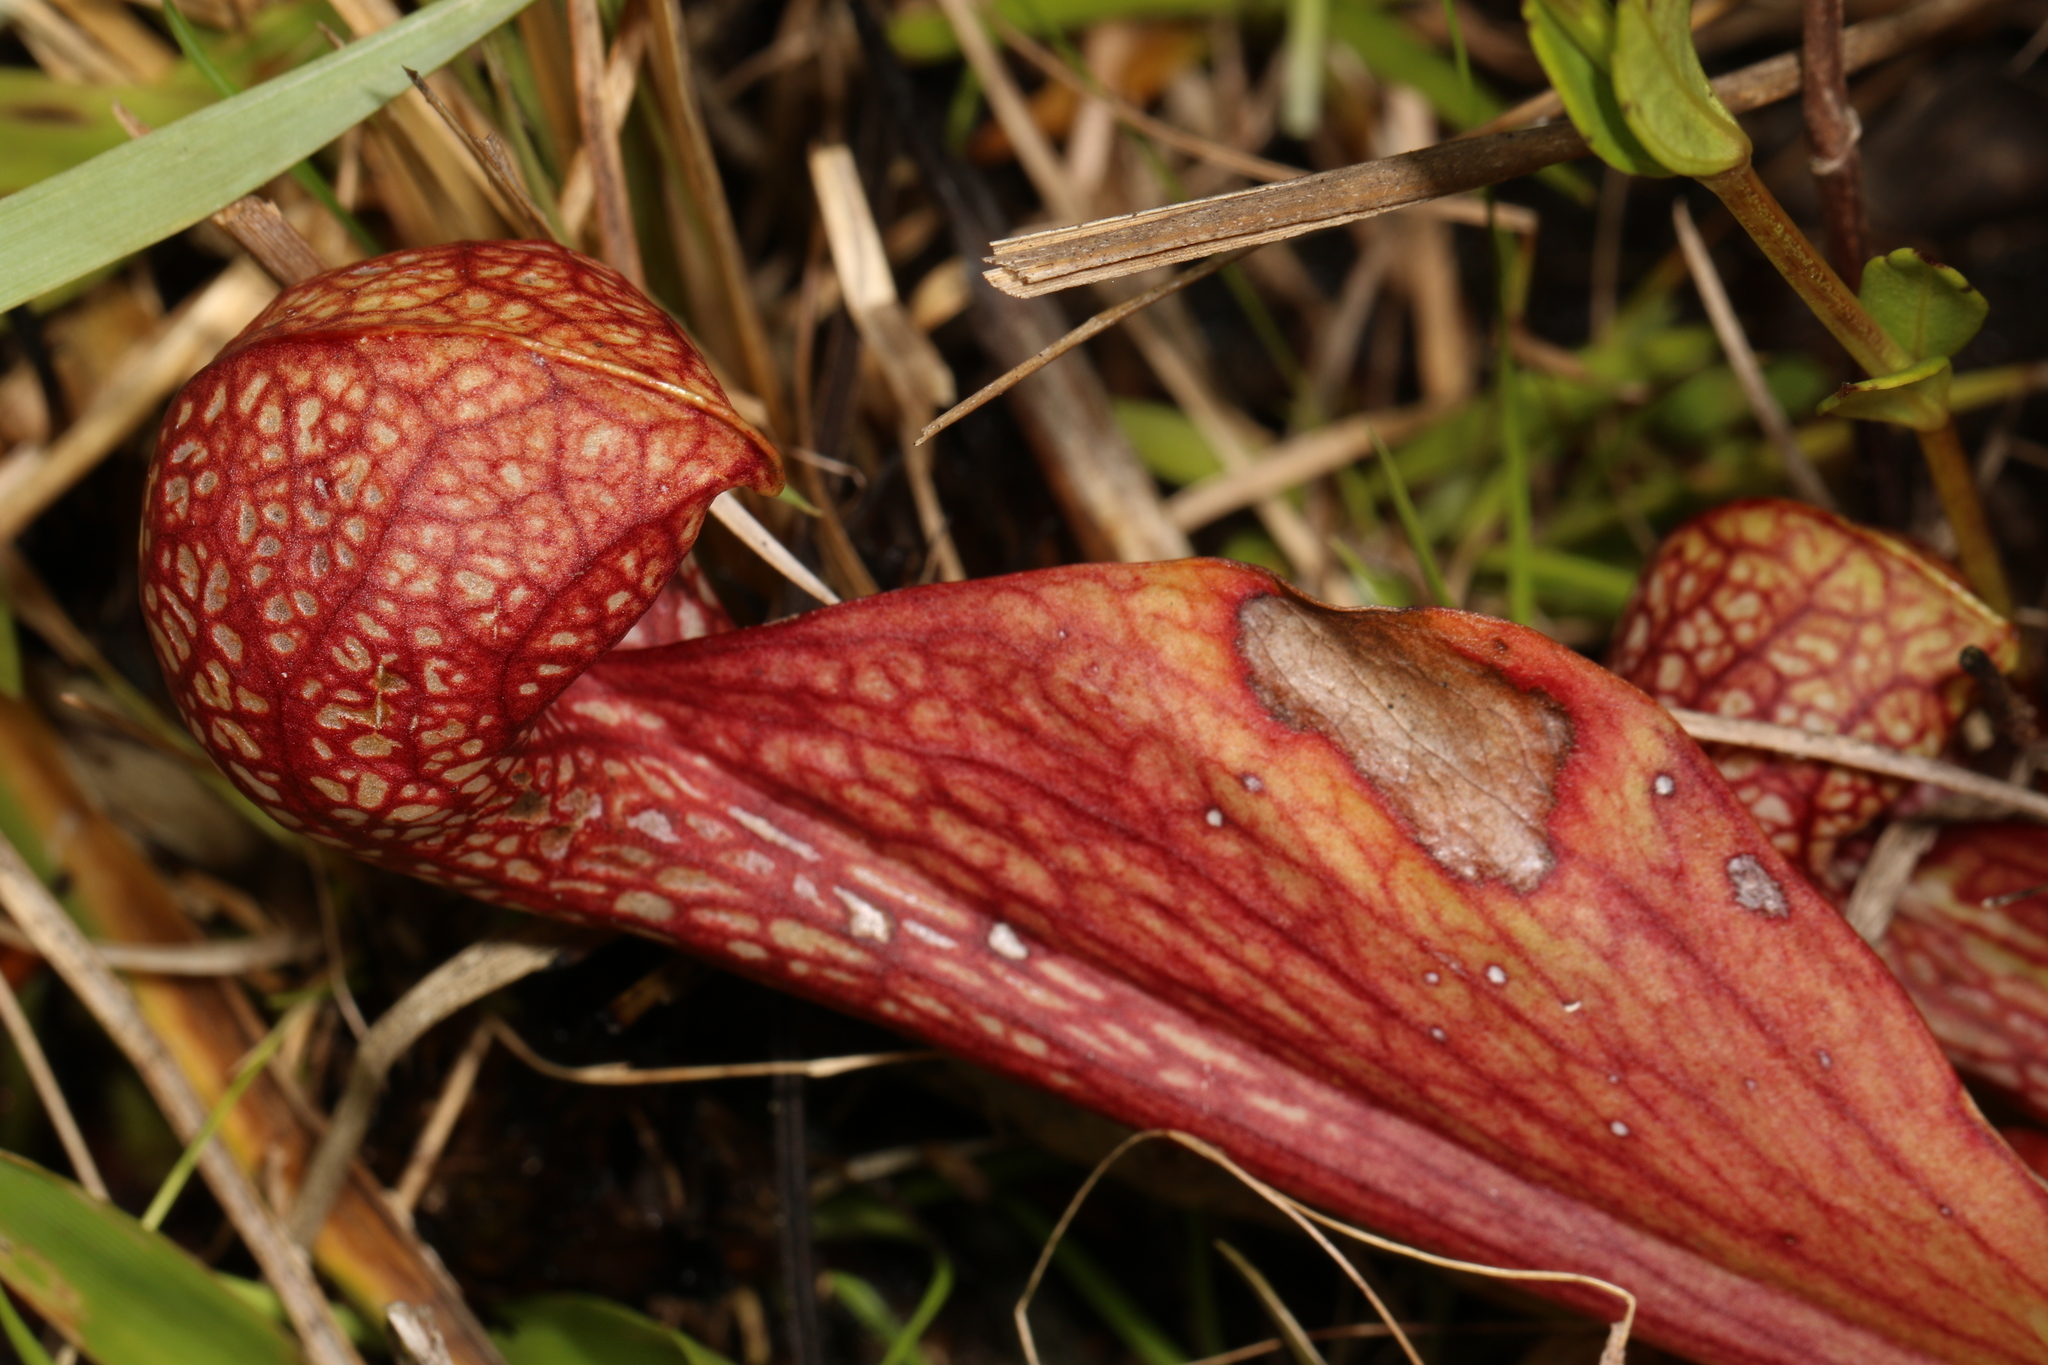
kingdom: Plantae
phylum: Tracheophyta
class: Magnoliopsida
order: Ericales
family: Sarraceniaceae
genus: Sarracenia
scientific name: Sarracenia psittacina
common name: Parrot pitcherplant
